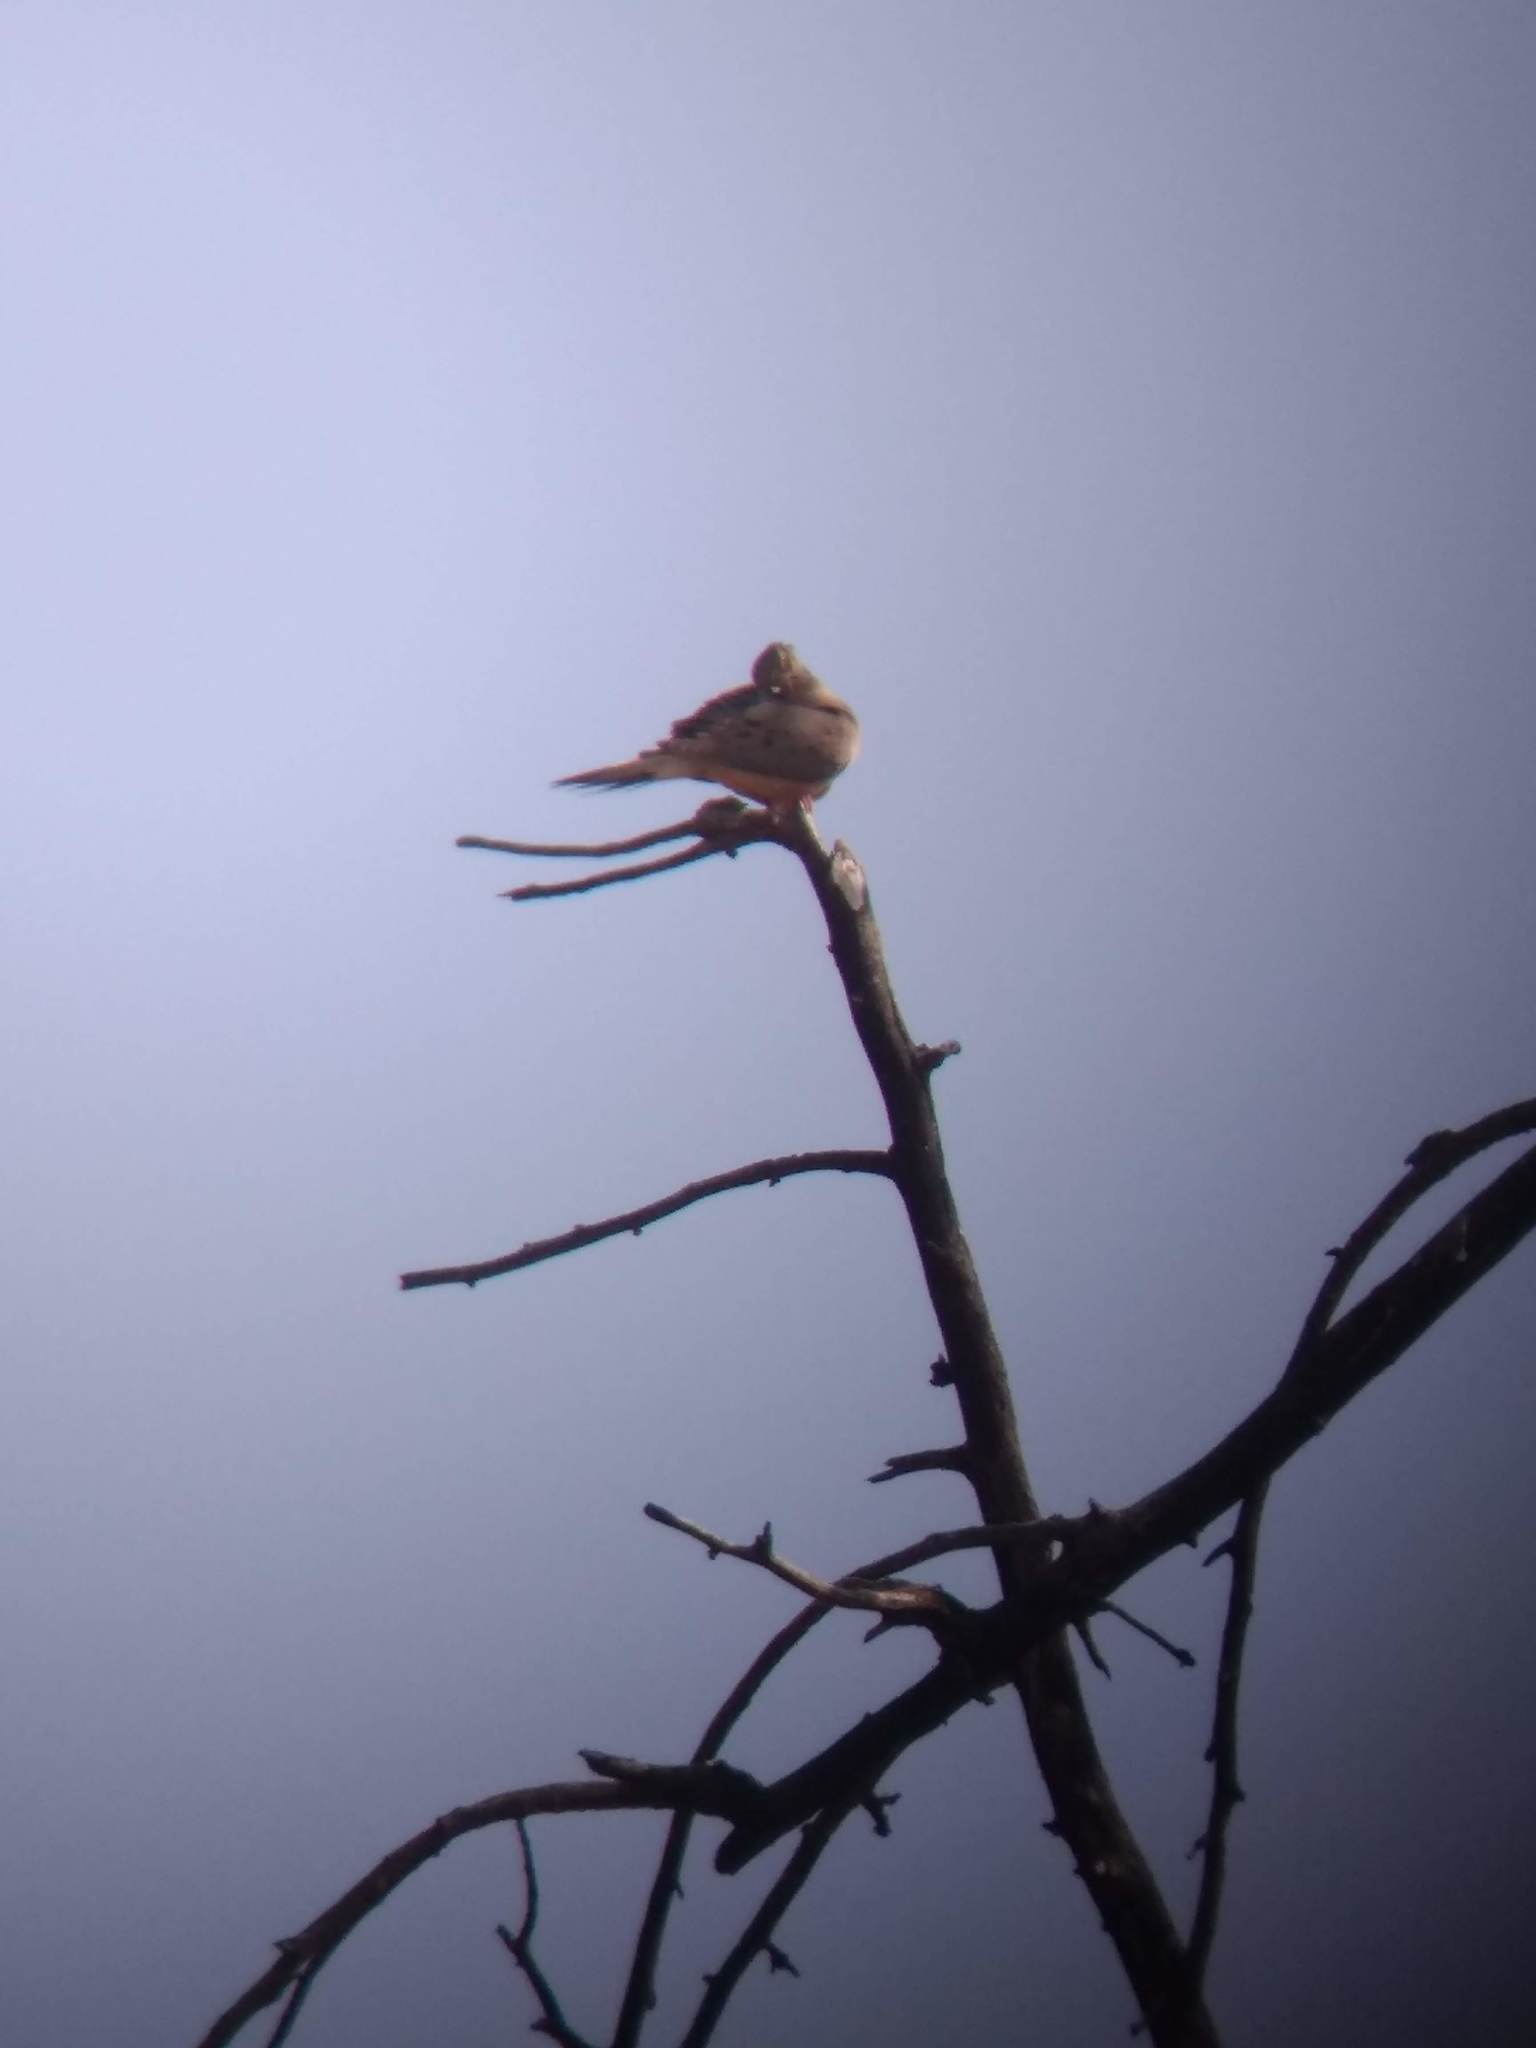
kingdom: Animalia
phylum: Chordata
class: Aves
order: Columbiformes
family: Columbidae
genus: Zenaida
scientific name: Zenaida macroura
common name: Mourning dove
